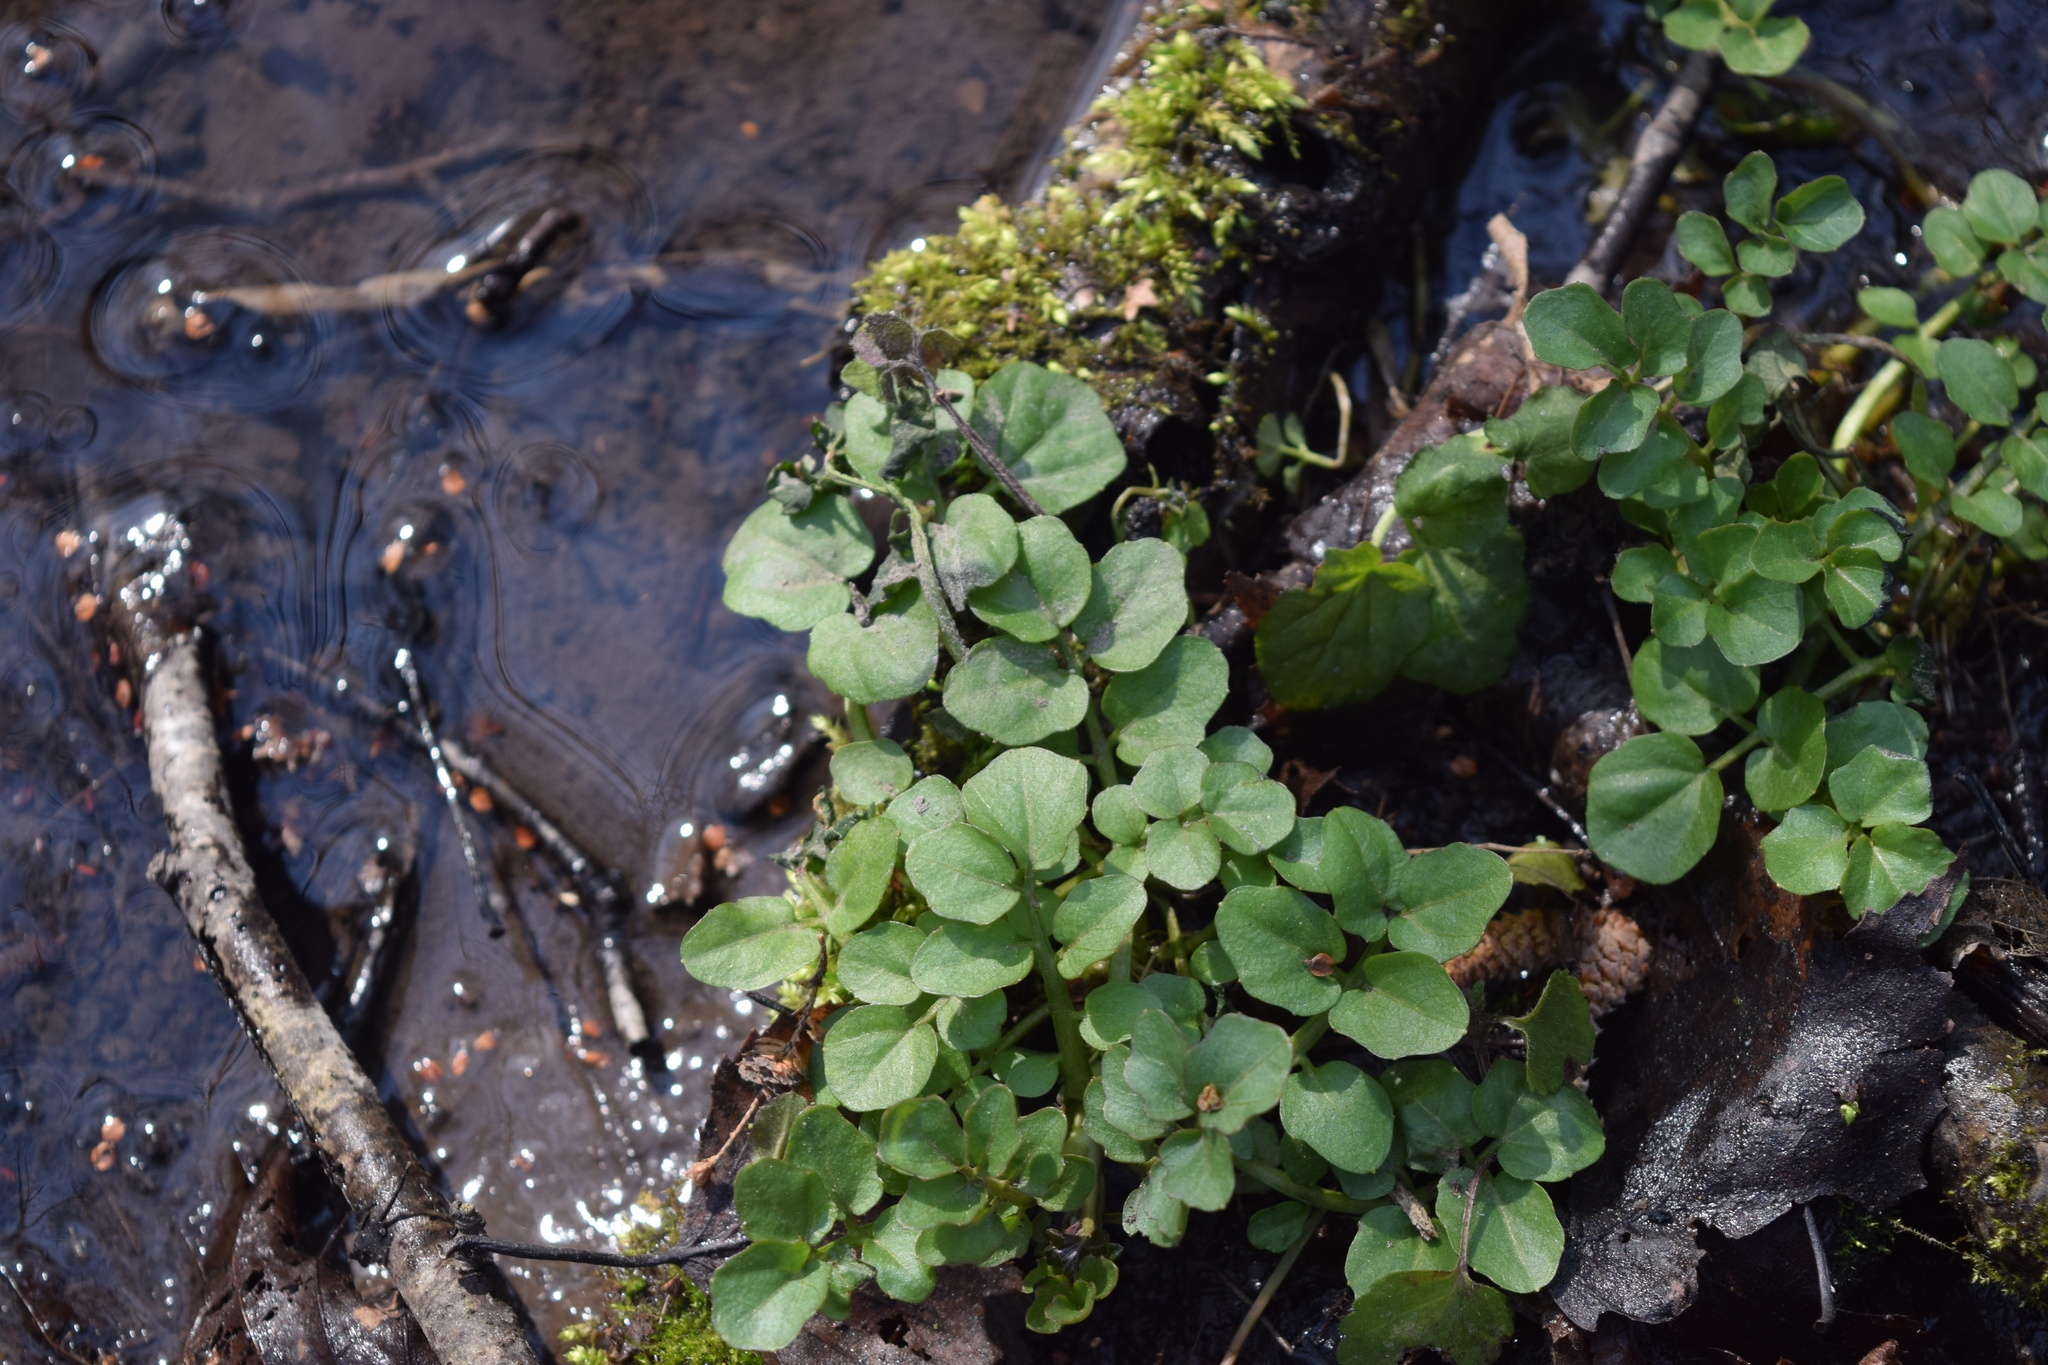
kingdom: Plantae
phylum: Tracheophyta
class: Magnoliopsida
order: Brassicales
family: Brassicaceae
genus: Cardamine
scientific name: Cardamine amara
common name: Large bitter-cress
